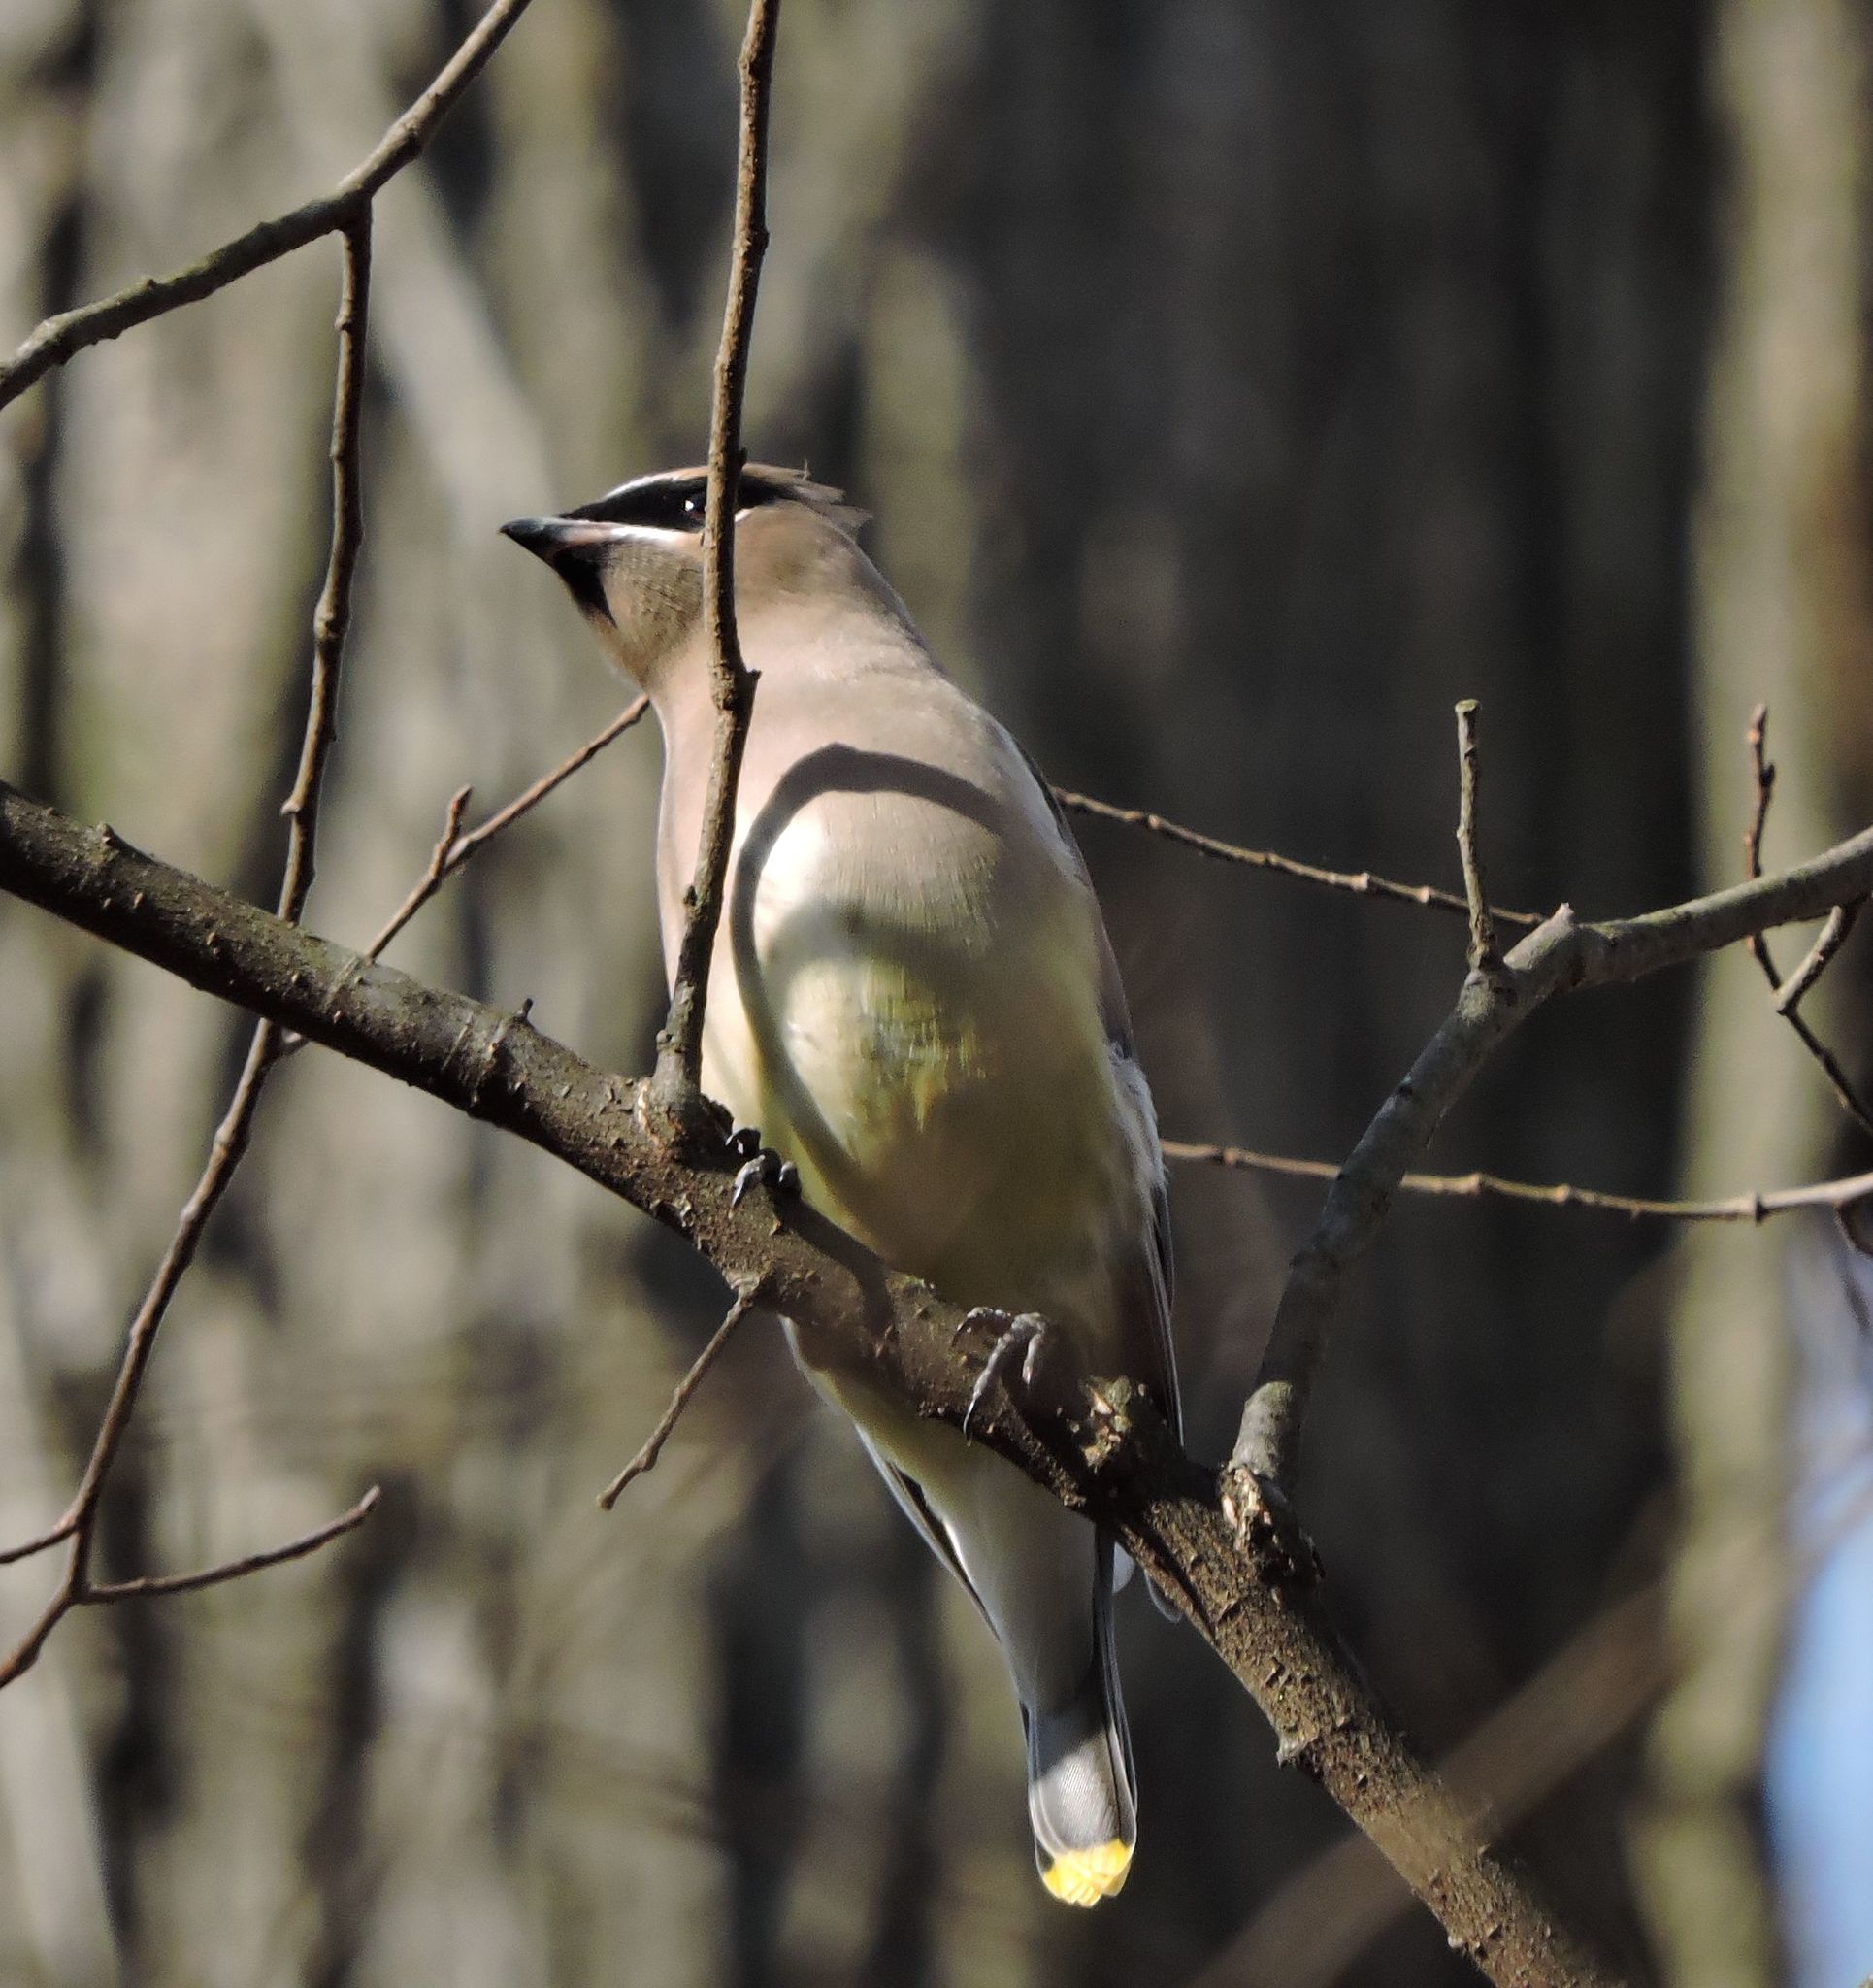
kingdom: Animalia
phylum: Chordata
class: Aves
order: Passeriformes
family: Bombycillidae
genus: Bombycilla
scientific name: Bombycilla cedrorum
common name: Cedar waxwing
